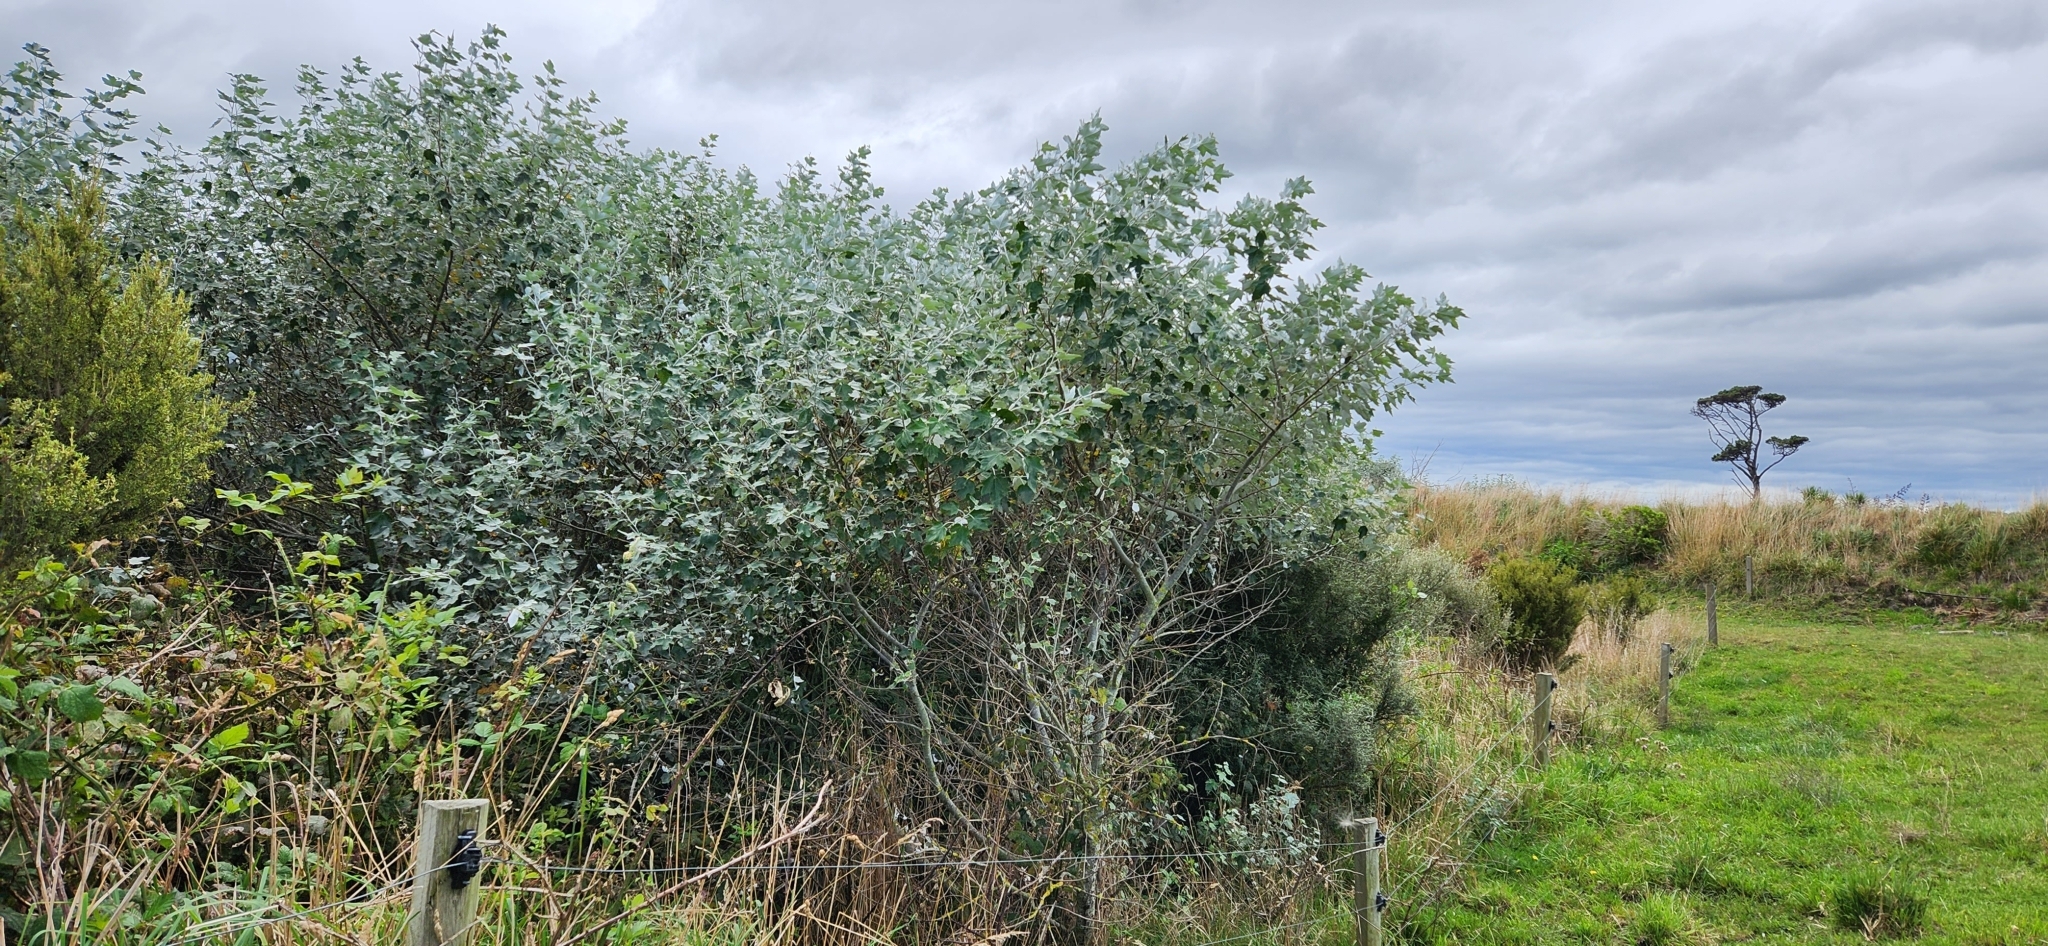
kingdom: Plantae
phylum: Tracheophyta
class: Magnoliopsida
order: Malpighiales
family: Salicaceae
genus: Populus
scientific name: Populus alba
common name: White poplar
